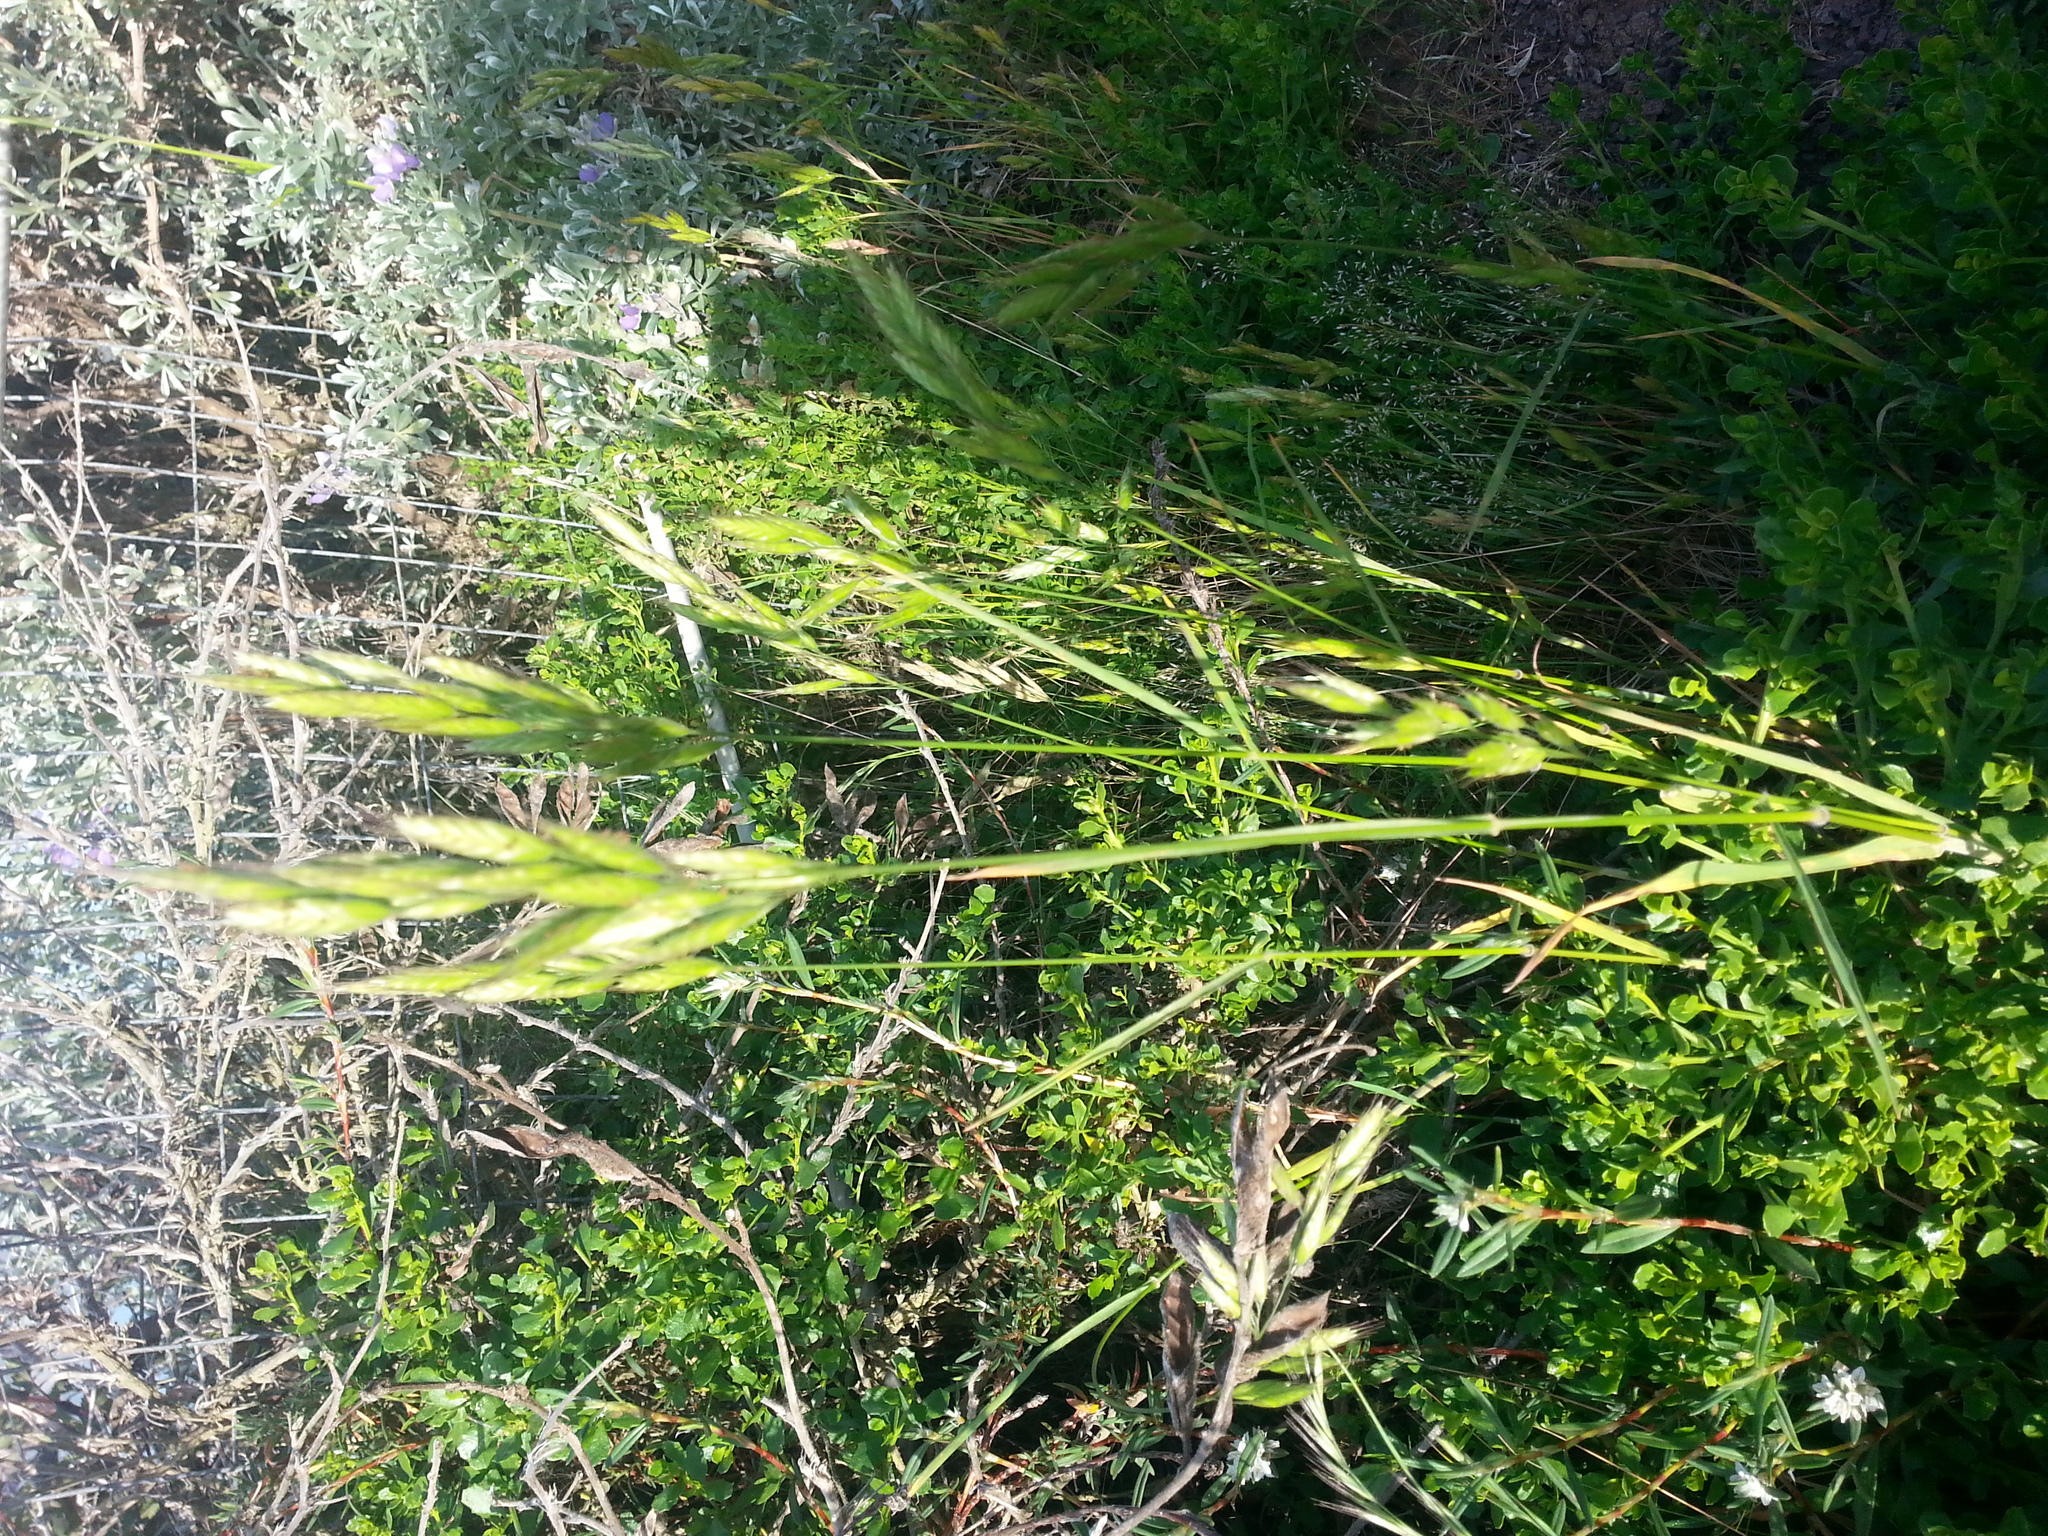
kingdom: Plantae
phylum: Tracheophyta
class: Liliopsida
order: Poales
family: Poaceae
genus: Bromus
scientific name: Bromus hordeaceus
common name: Soft brome
